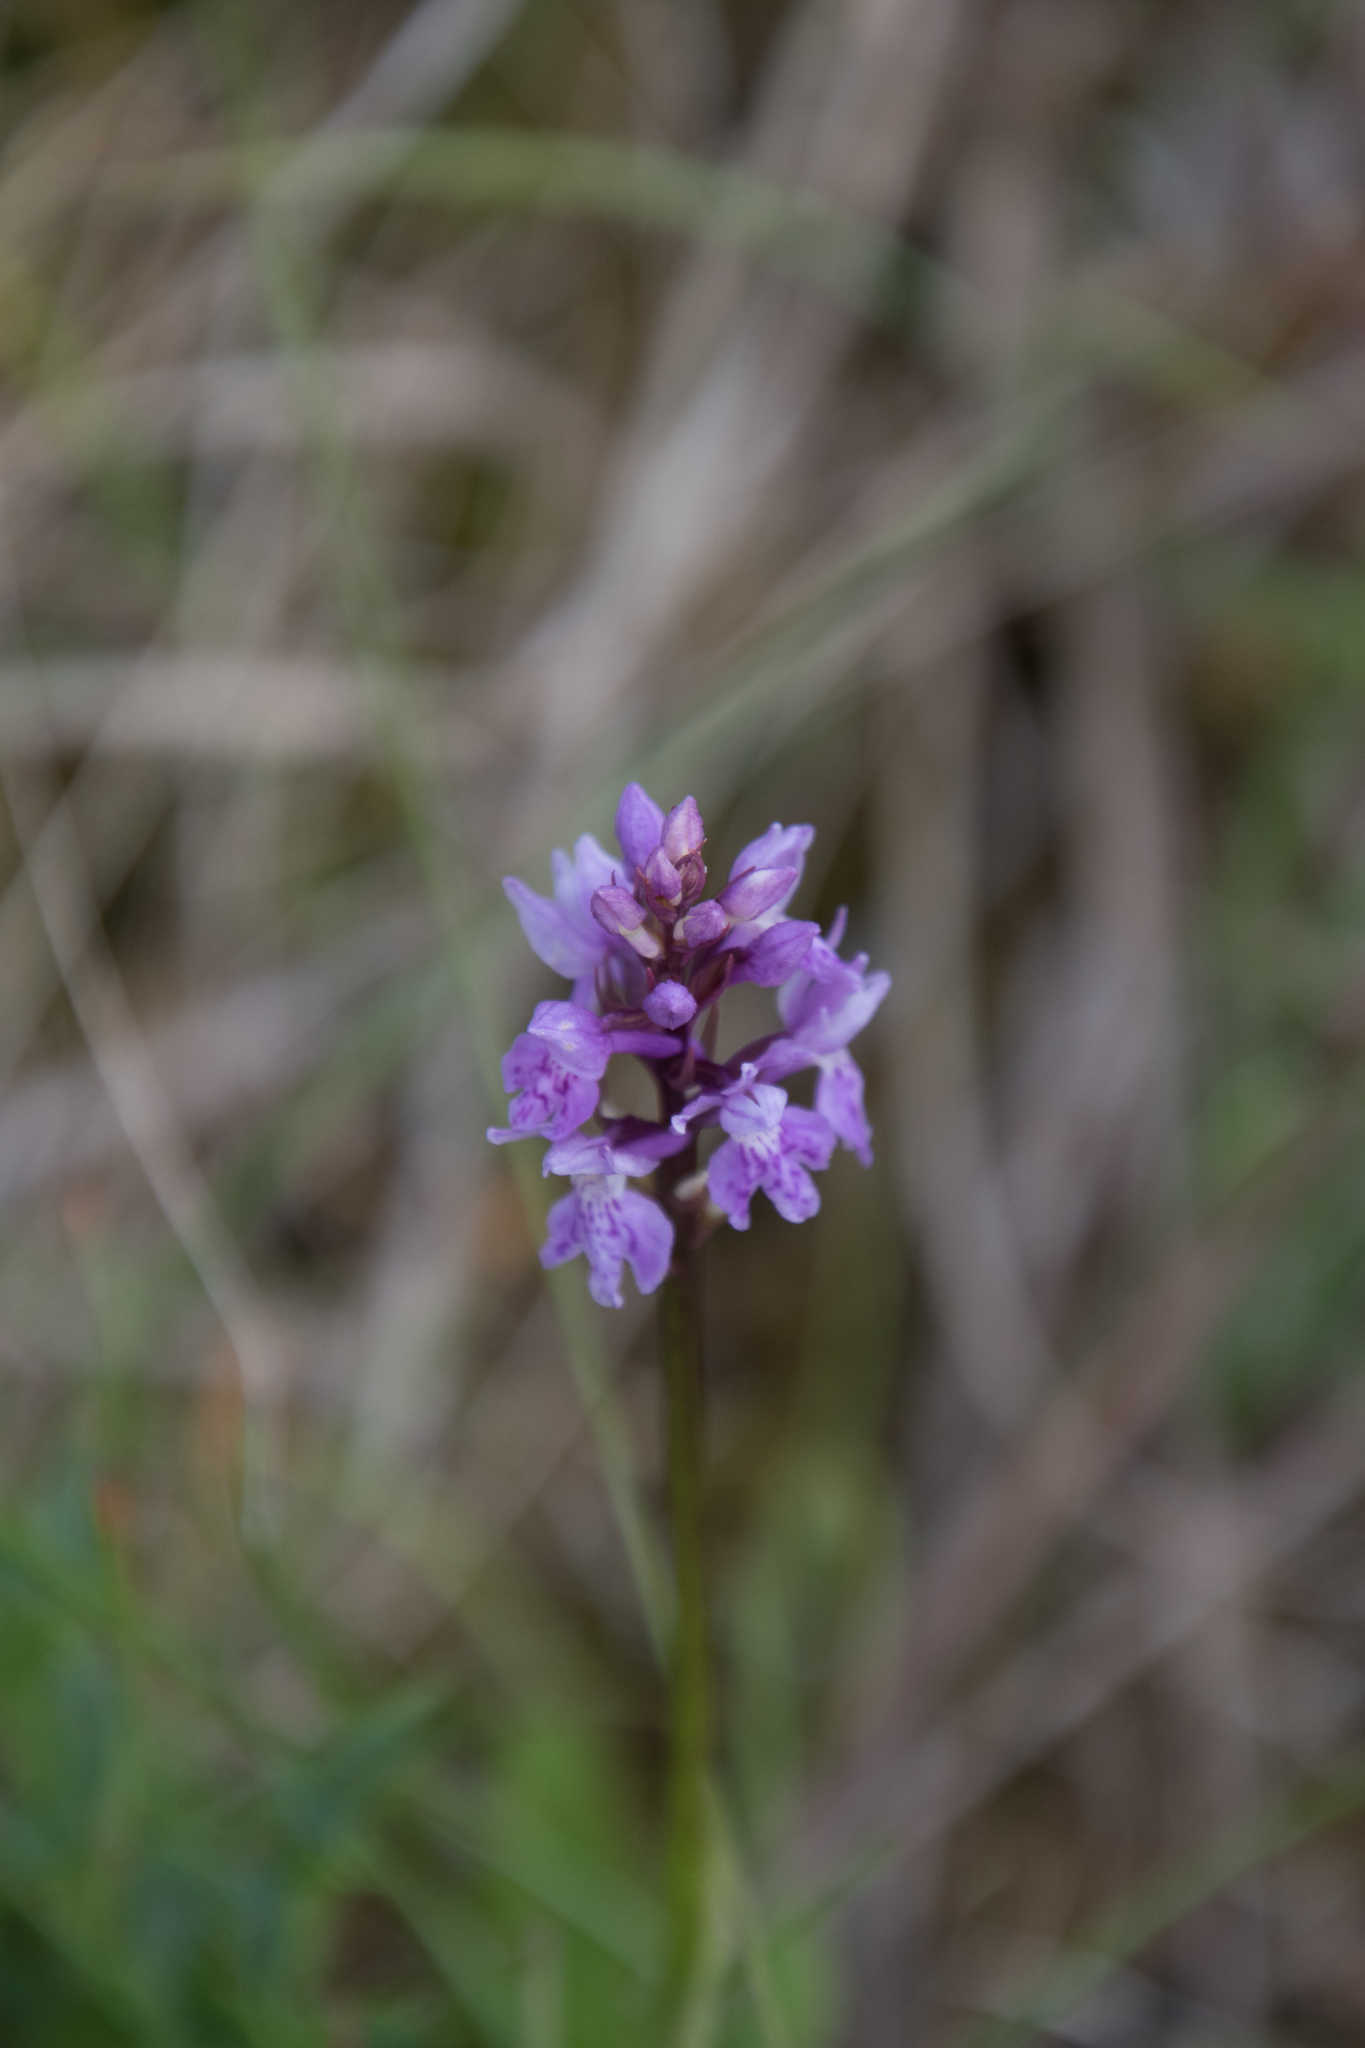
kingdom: Plantae
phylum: Tracheophyta
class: Liliopsida
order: Asparagales
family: Orchidaceae
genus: Dactylorhiza
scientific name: Dactylorhiza maculata
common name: Heath spotted-orchid
